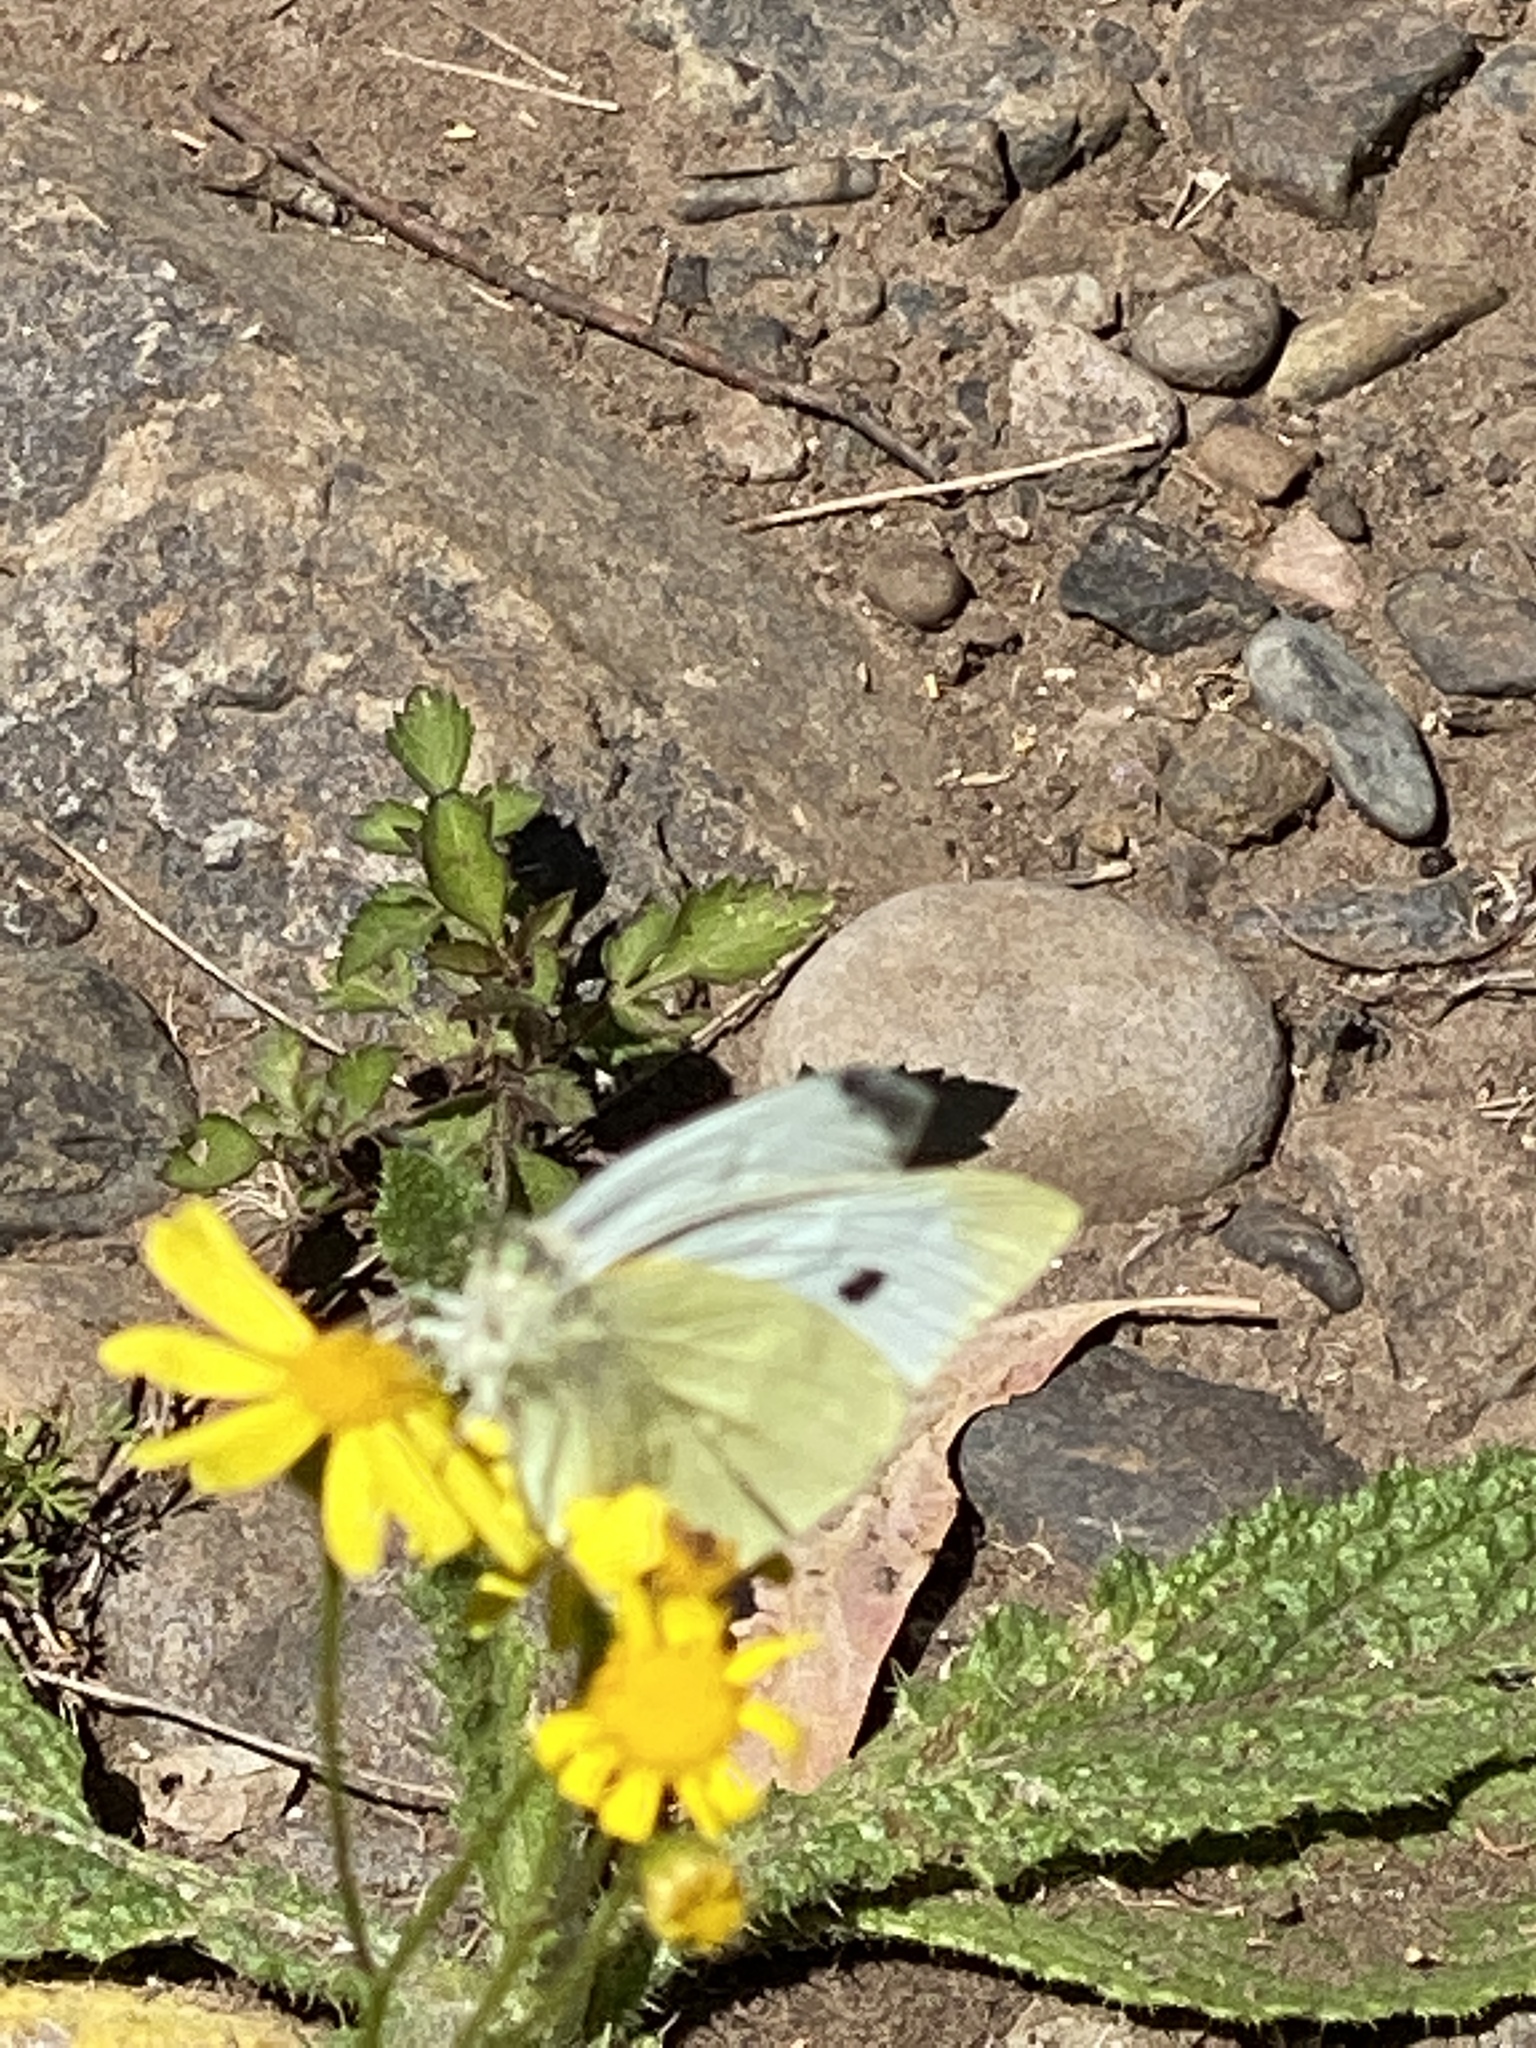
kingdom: Animalia
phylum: Arthropoda
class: Insecta
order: Lepidoptera
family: Pieridae
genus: Pieris
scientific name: Pieris rapae
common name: Small white
